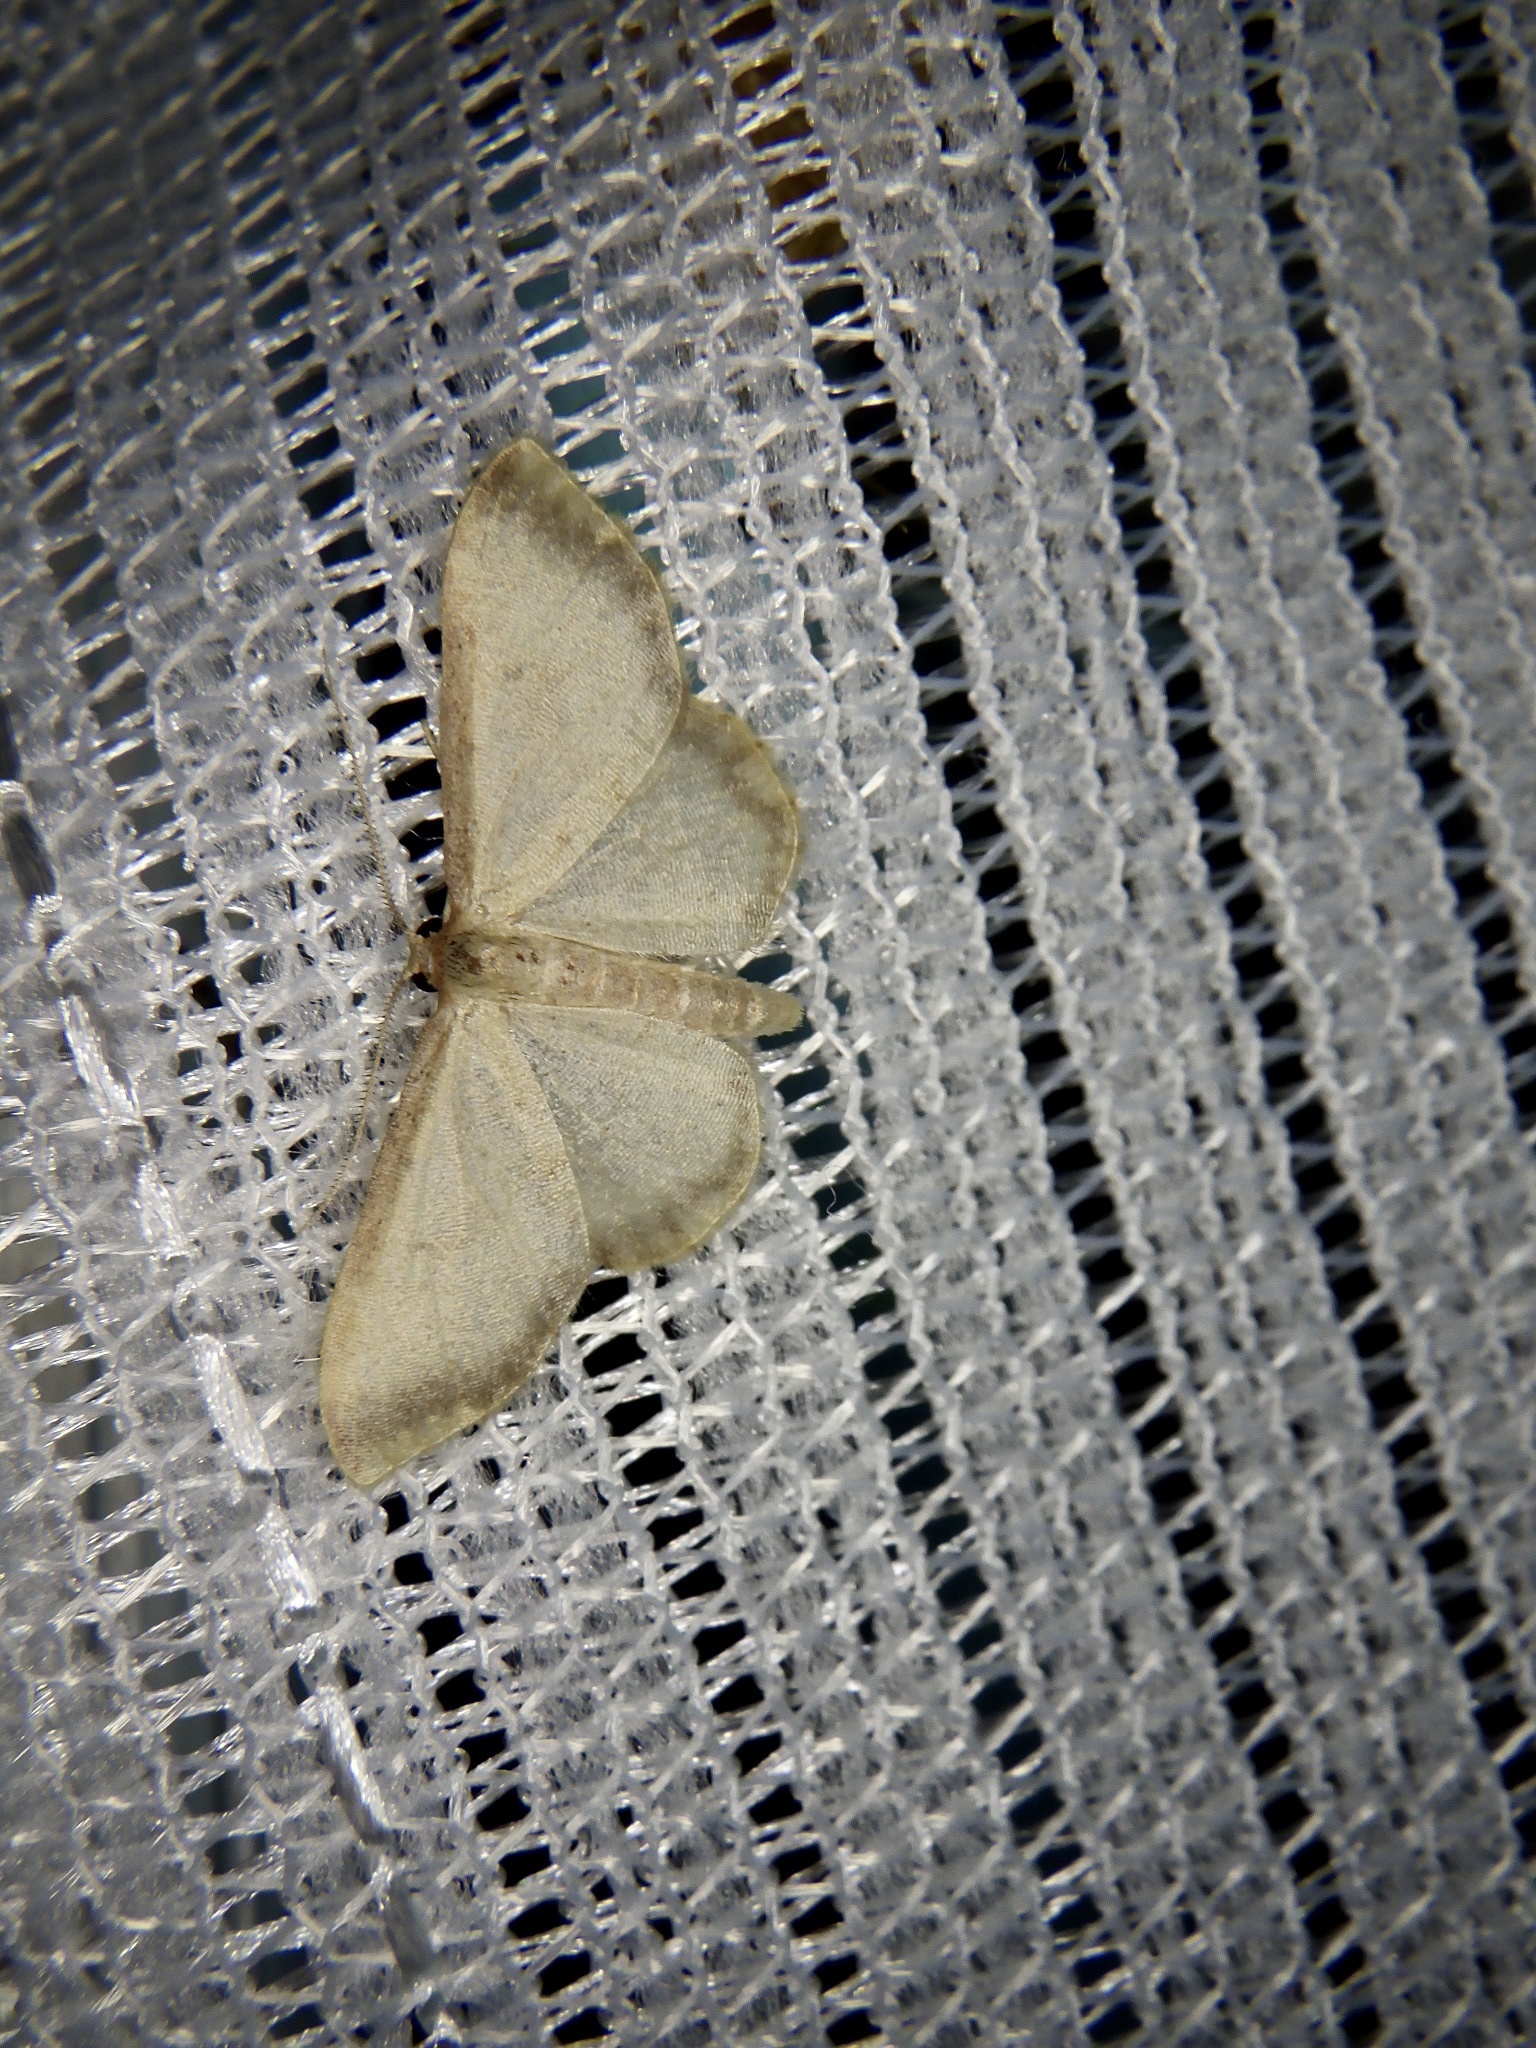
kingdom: Animalia
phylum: Arthropoda
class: Insecta
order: Lepidoptera
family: Geometridae
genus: Idaea
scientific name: Idaea impexa
